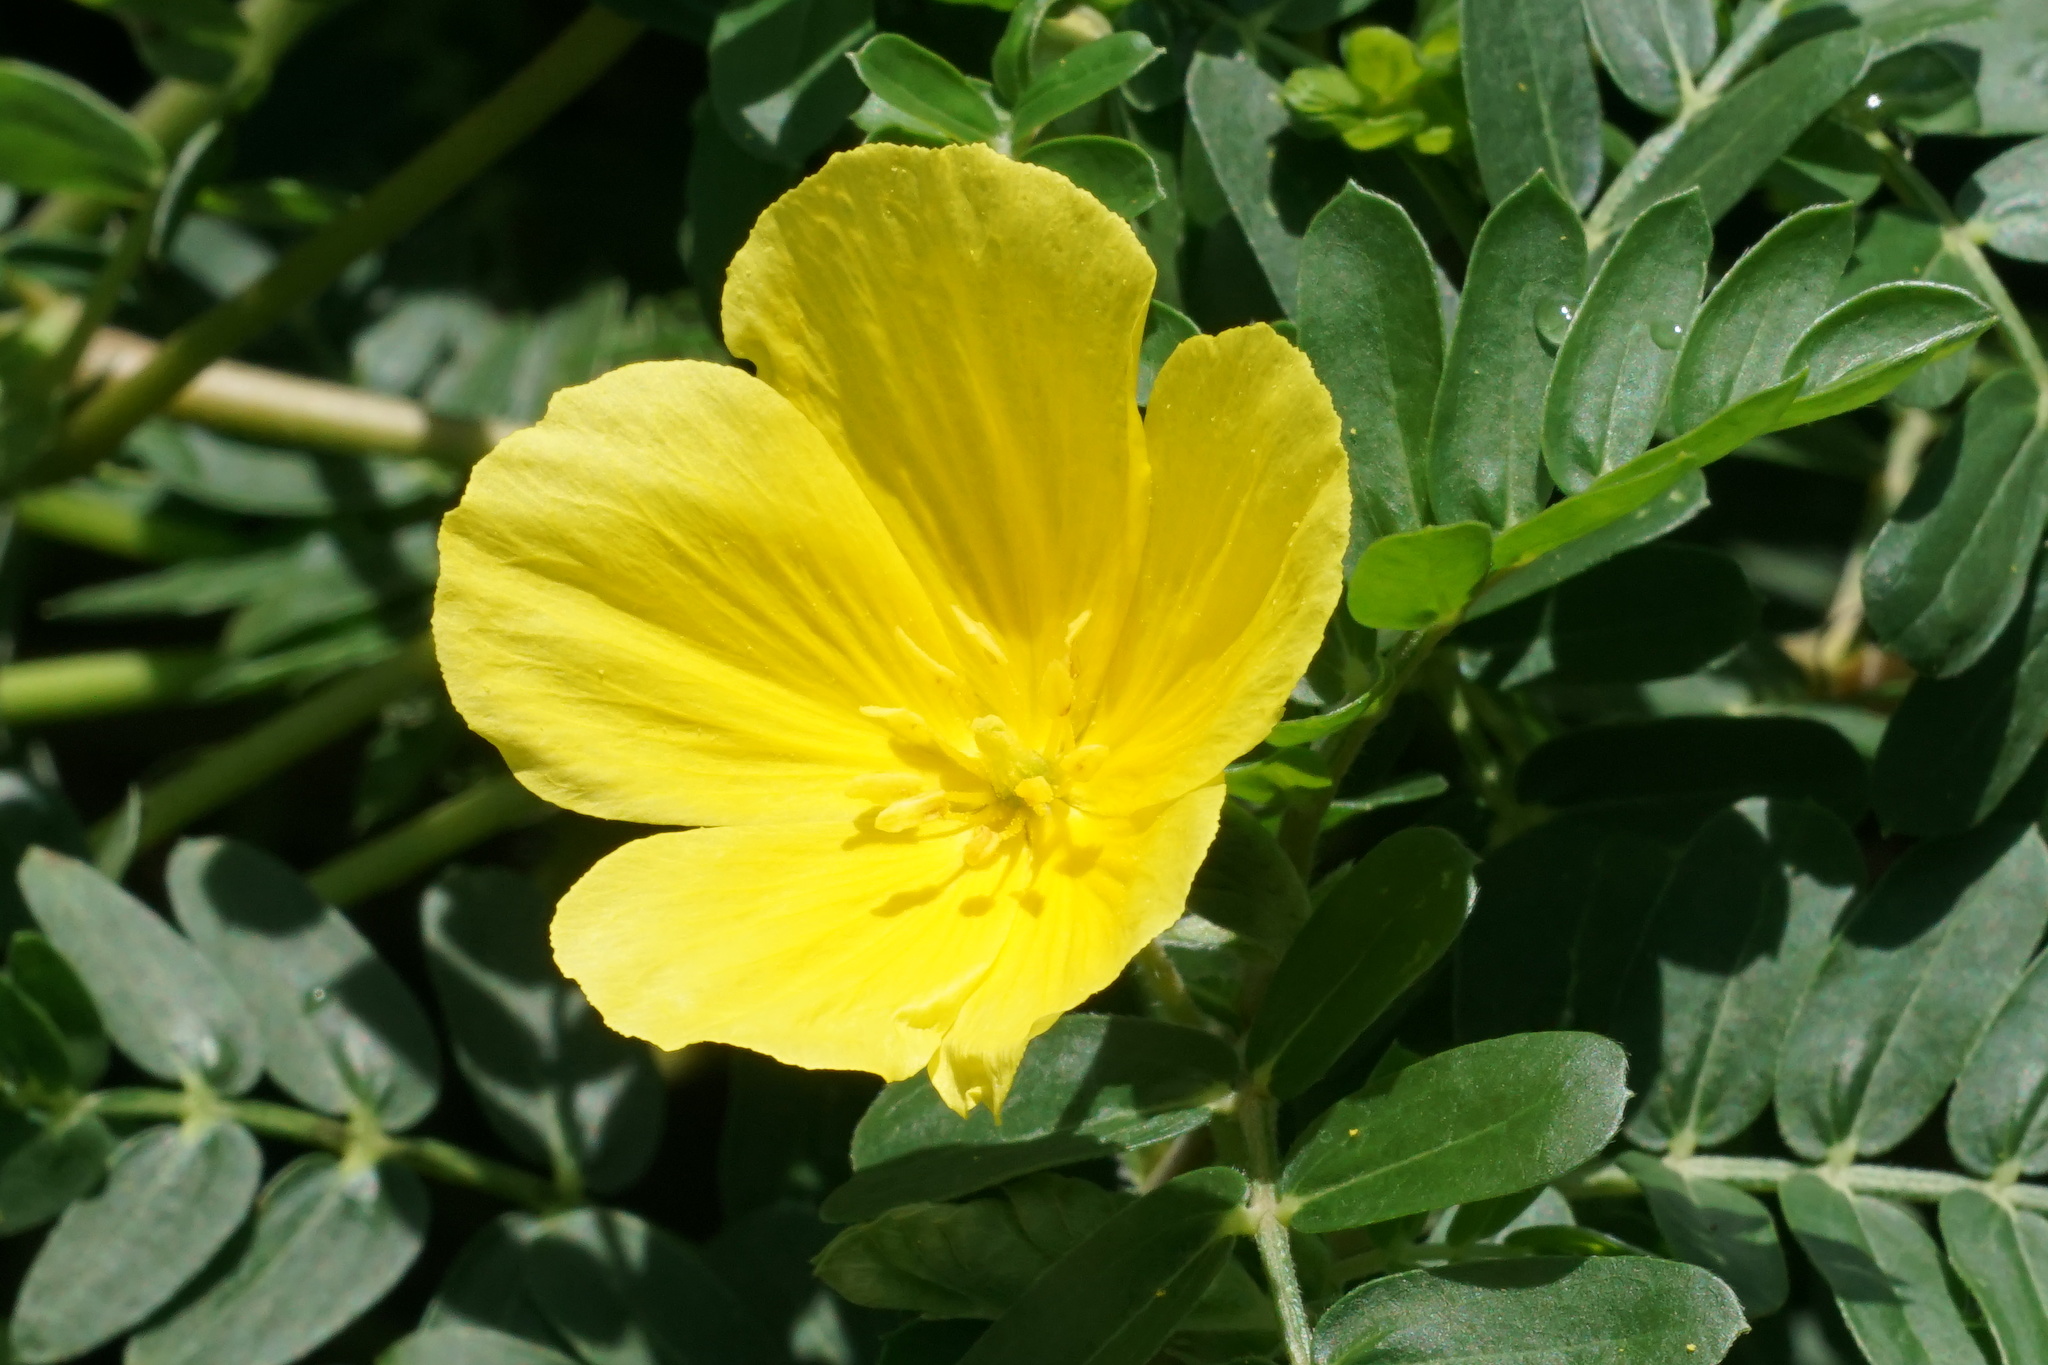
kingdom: Plantae
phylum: Tracheophyta
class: Magnoliopsida
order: Zygophyllales
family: Zygophyllaceae
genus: Tribulus
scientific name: Tribulus cistoides
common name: Jamaican feverplant
